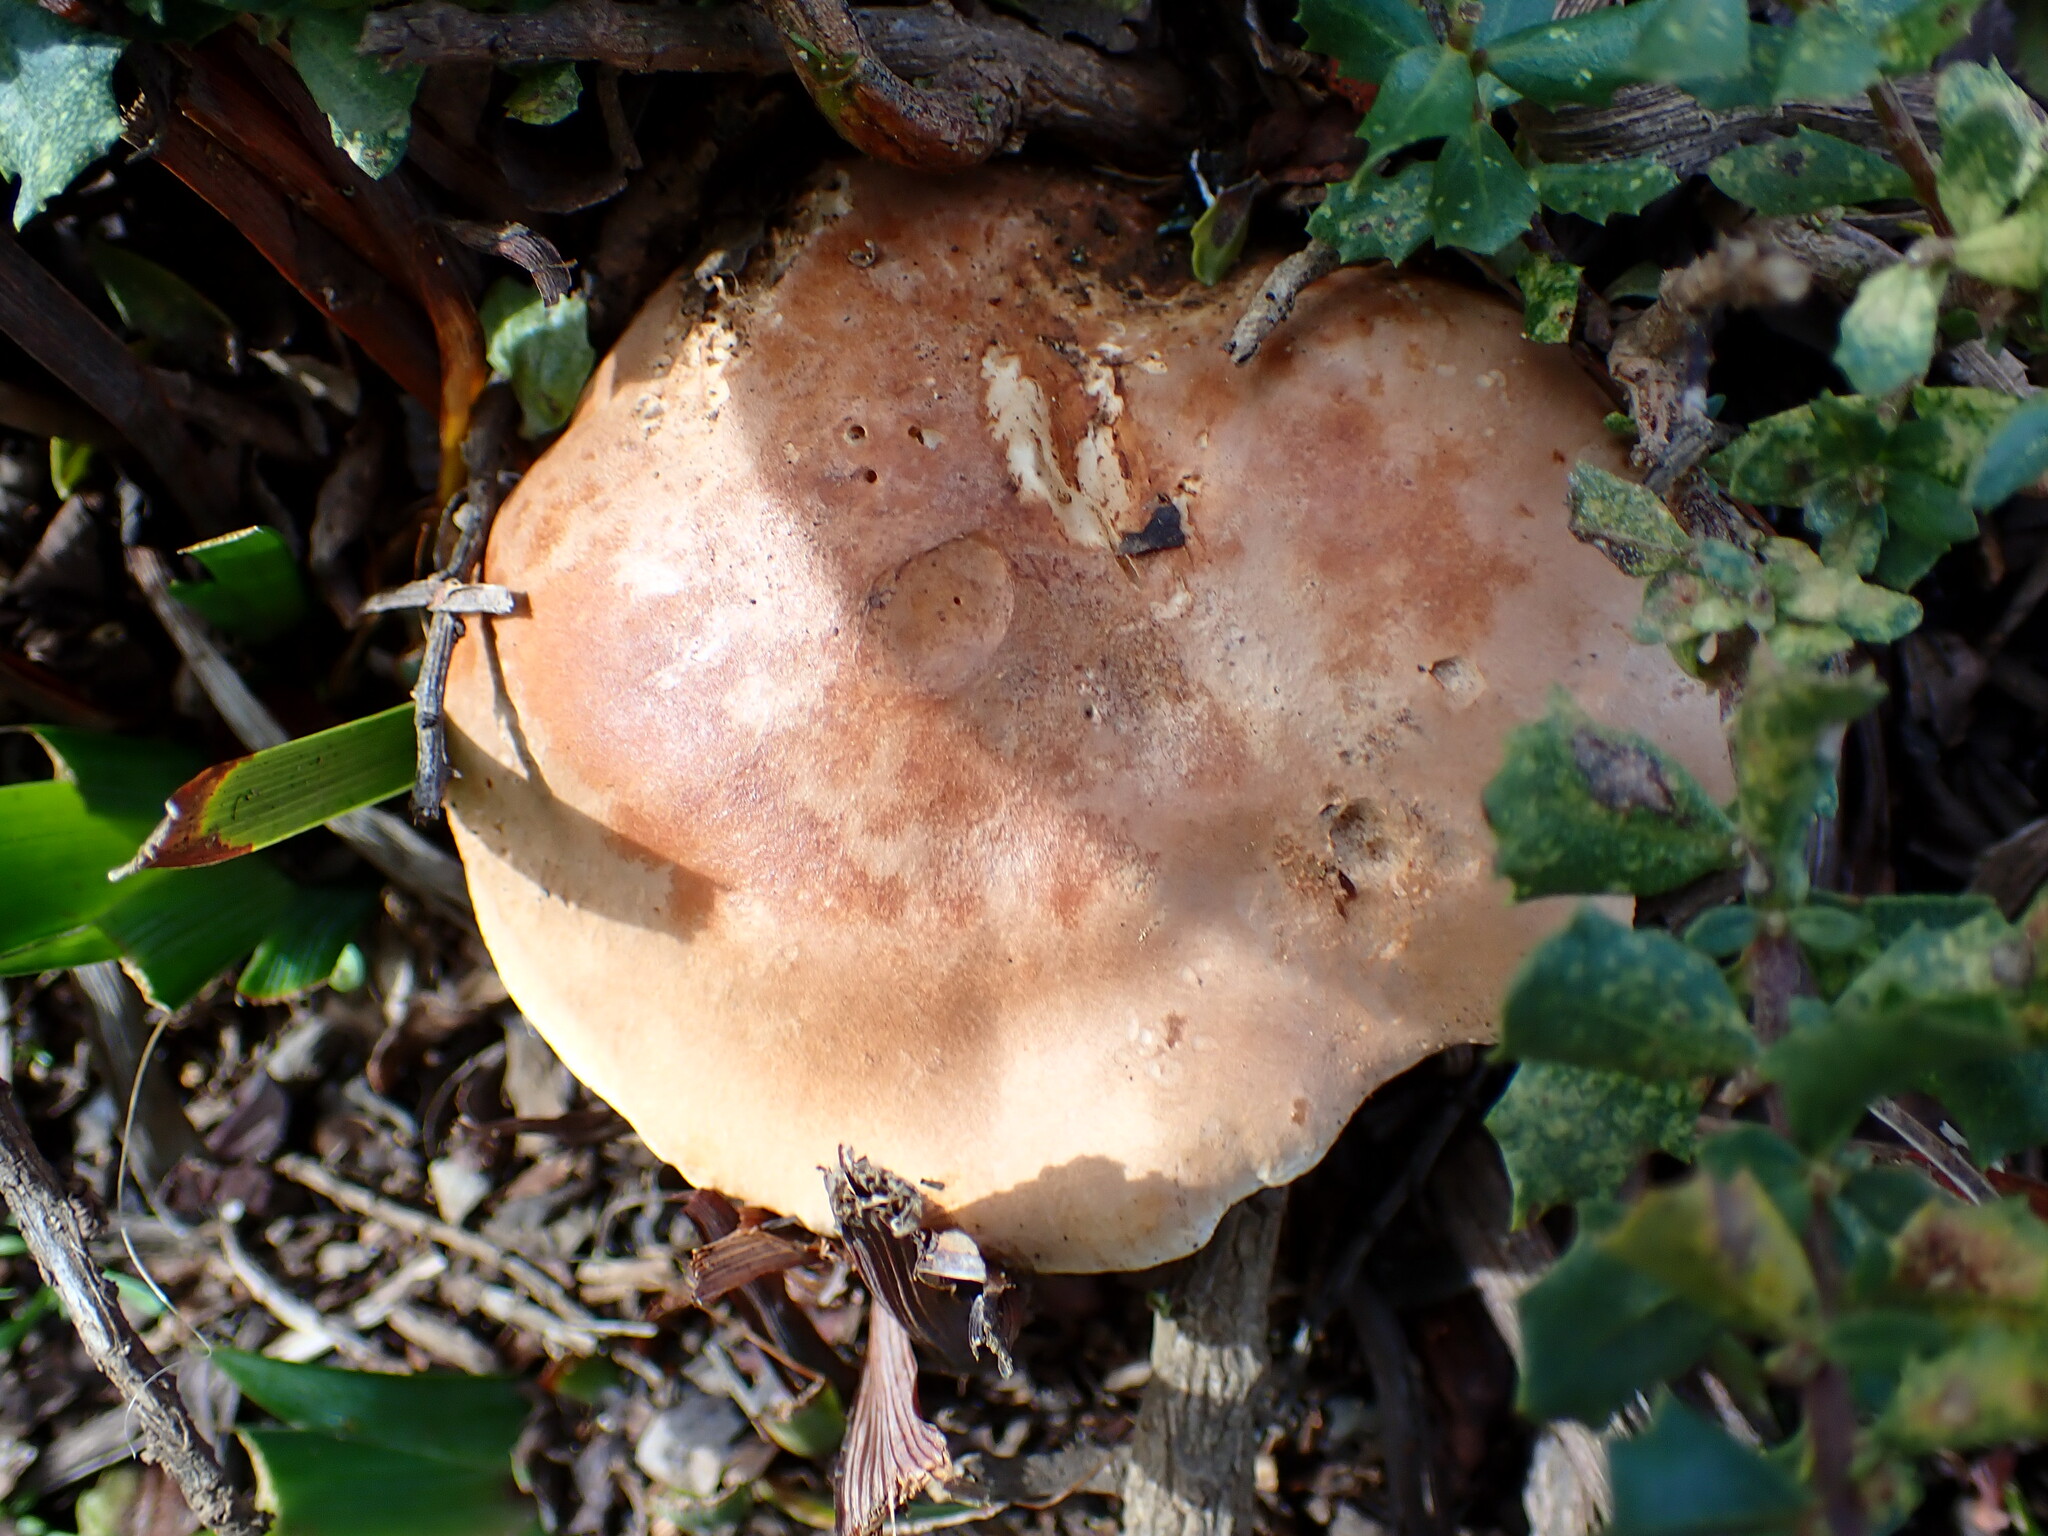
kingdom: Fungi
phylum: Basidiomycota
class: Agaricomycetes
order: Agaricales
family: Tricholomataceae
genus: Leucopaxillus
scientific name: Leucopaxillus gentianeus
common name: Bitter funnel
